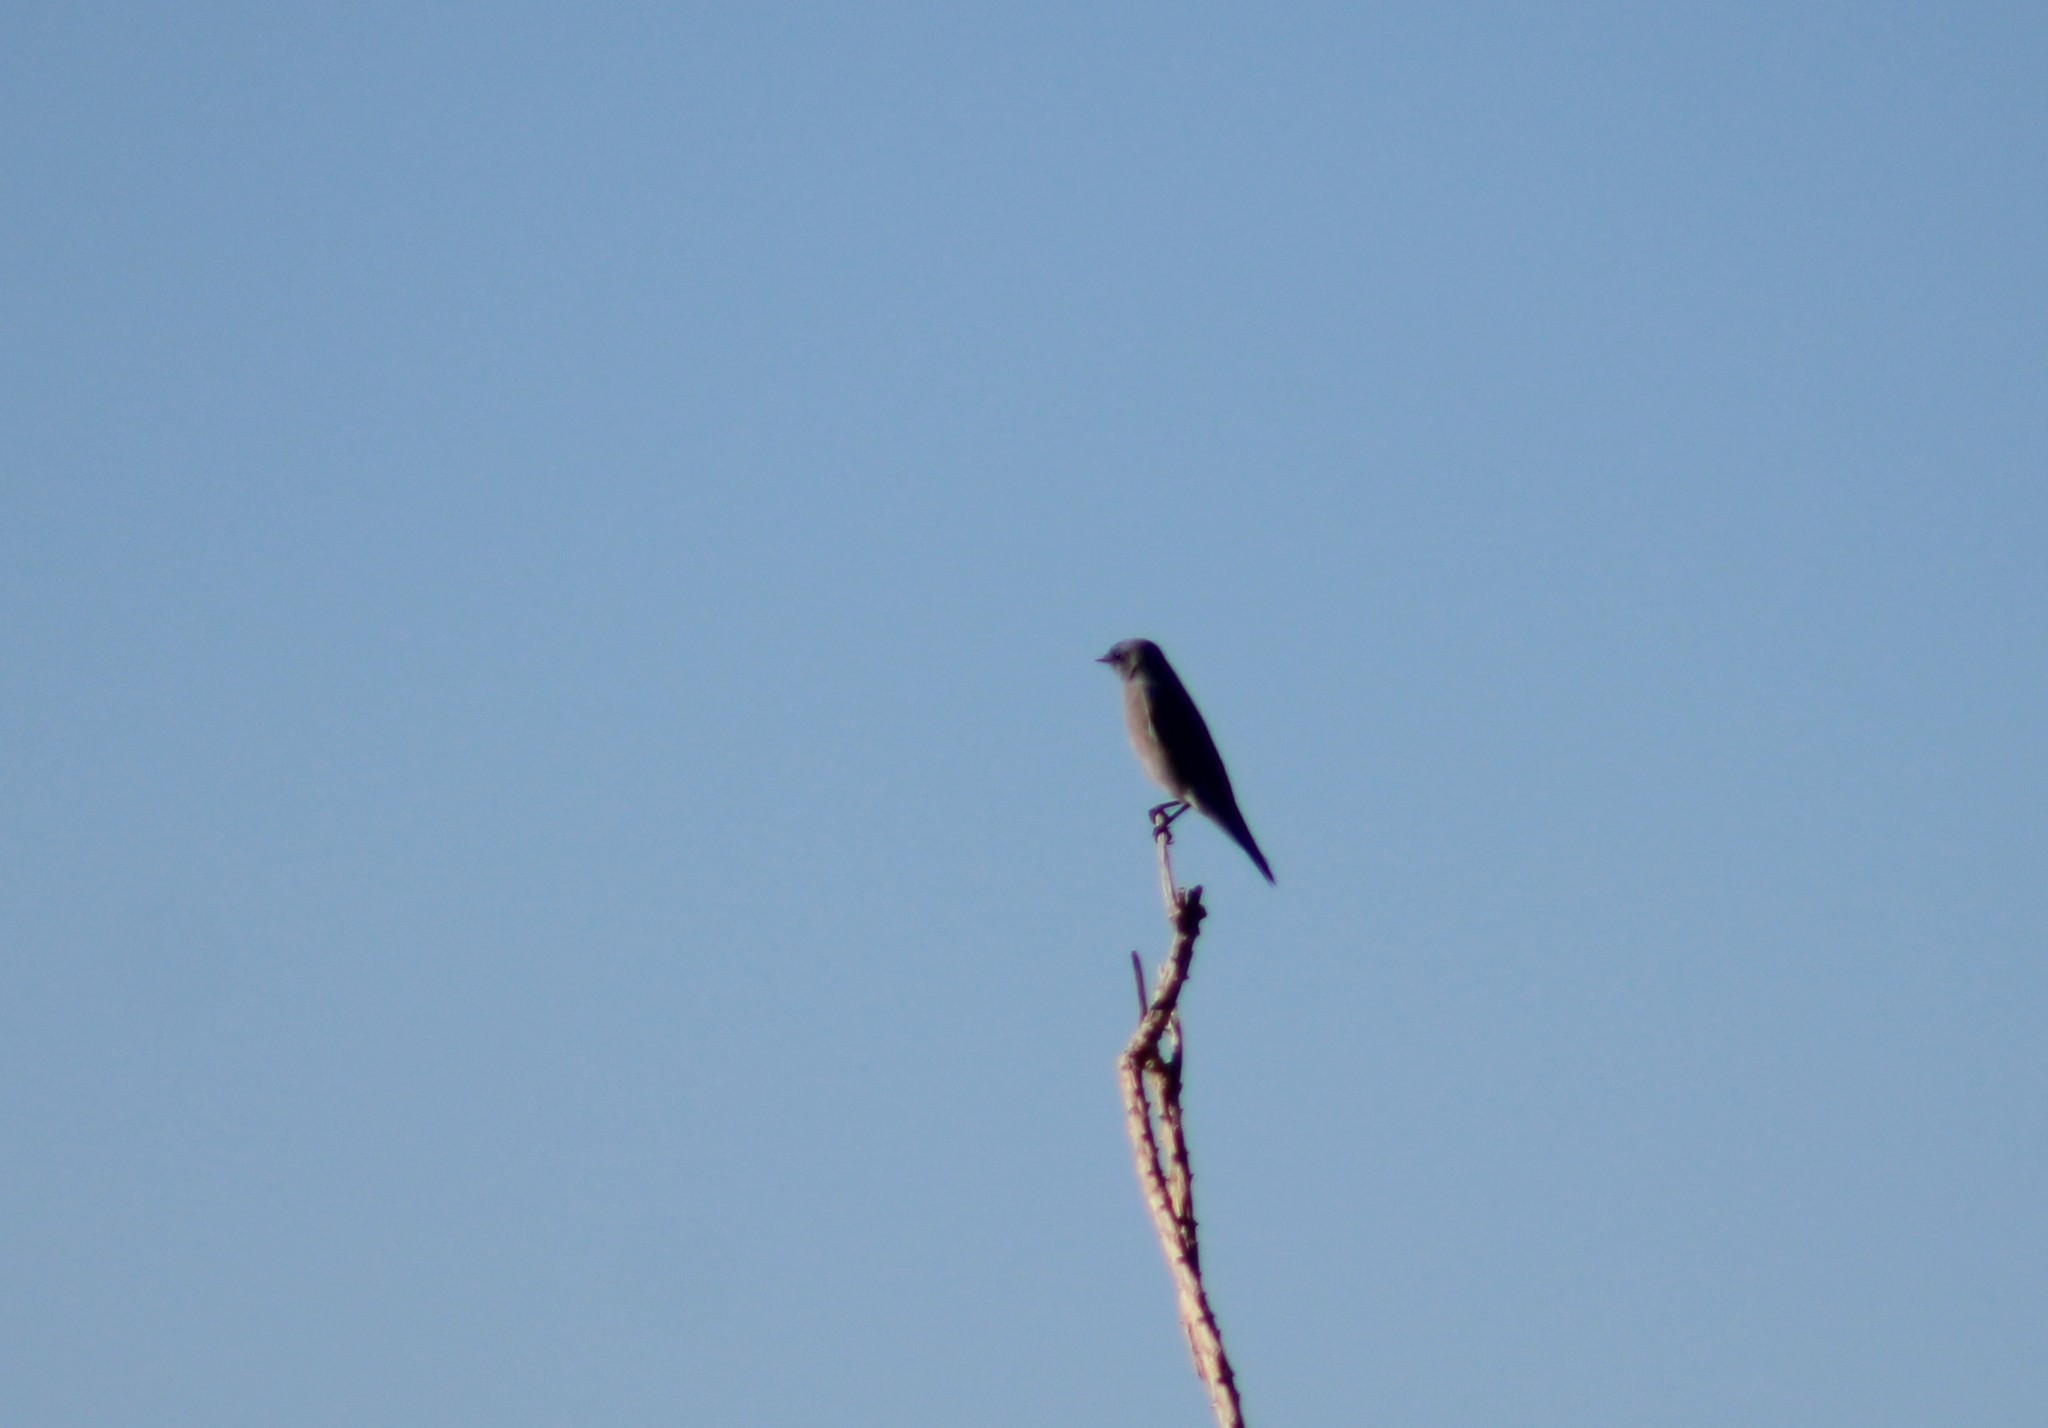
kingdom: Animalia
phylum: Chordata
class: Aves
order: Passeriformes
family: Turdidae
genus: Sialia
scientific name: Sialia currucoides
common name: Mountain bluebird
